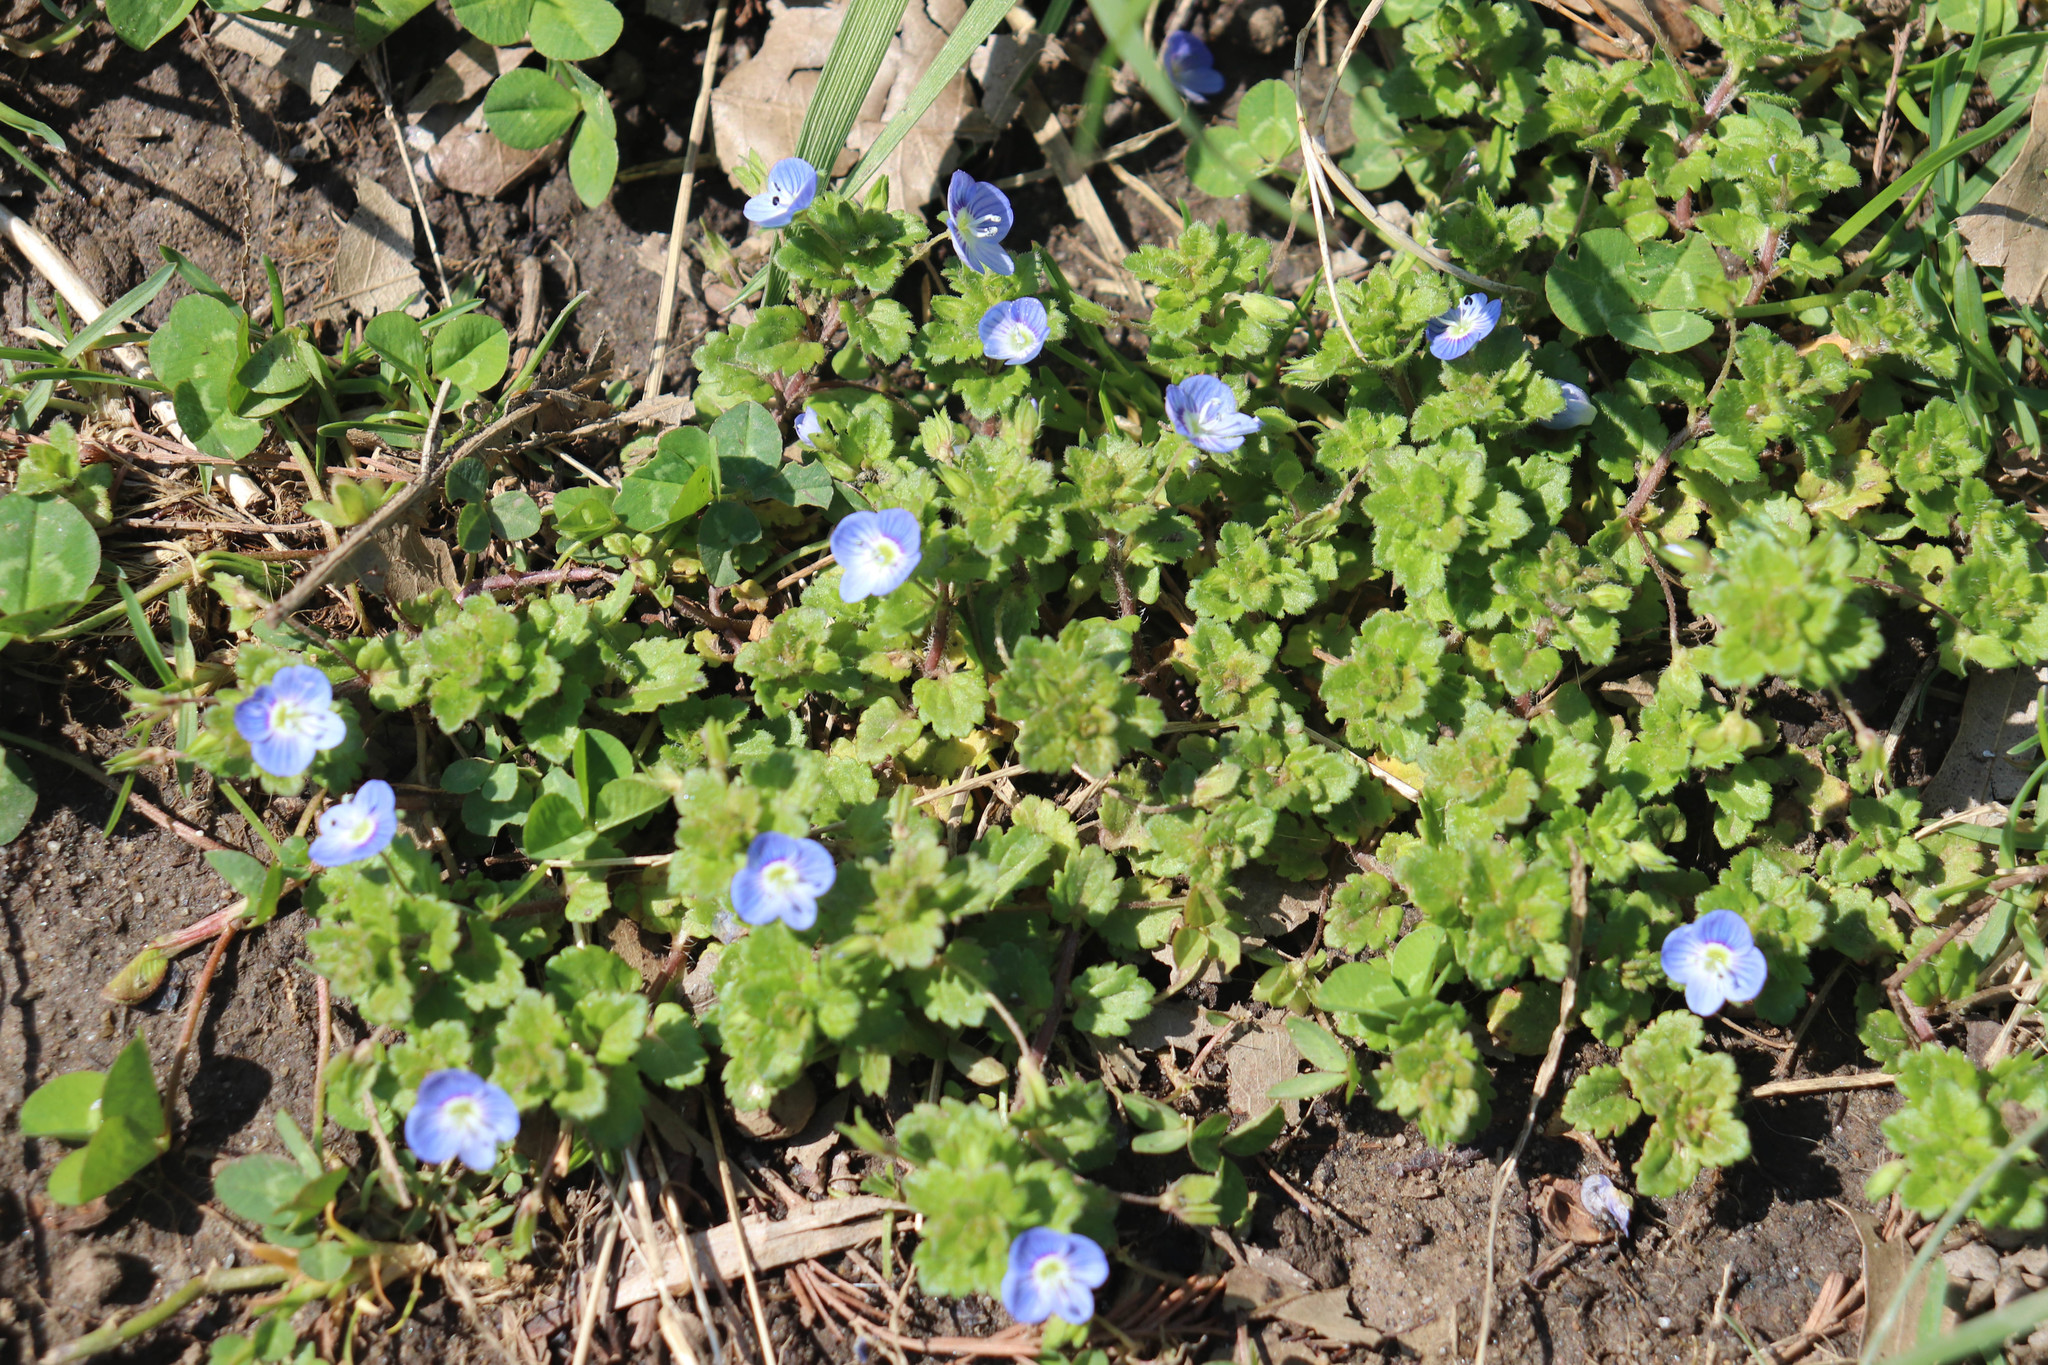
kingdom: Plantae
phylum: Tracheophyta
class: Magnoliopsida
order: Lamiales
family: Plantaginaceae
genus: Veronica
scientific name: Veronica persica
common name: Common field-speedwell
